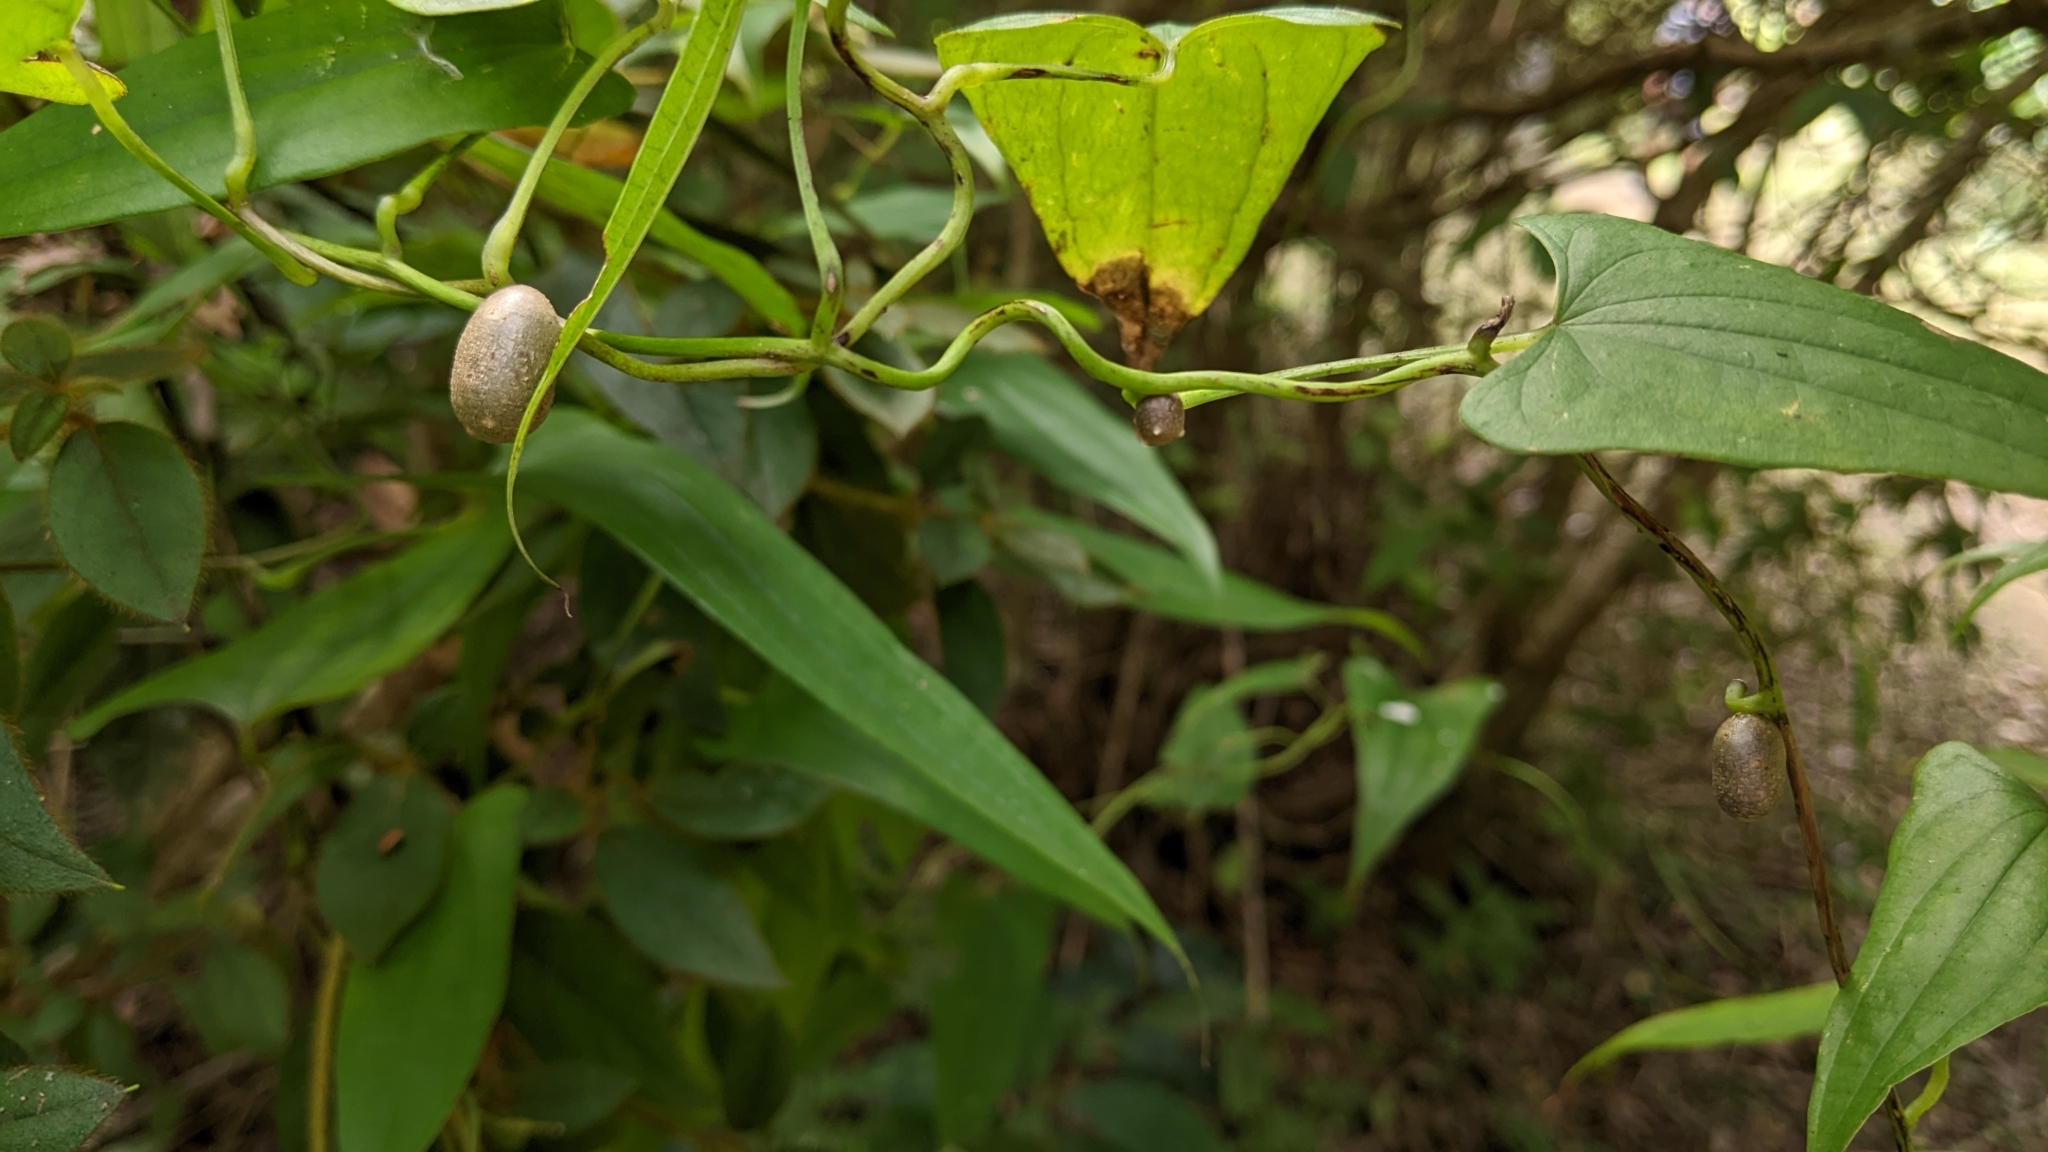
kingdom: Plantae
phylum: Tracheophyta
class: Liliopsida
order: Dioscoreales
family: Dioscoreaceae
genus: Dioscorea
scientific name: Dioscorea japonica
